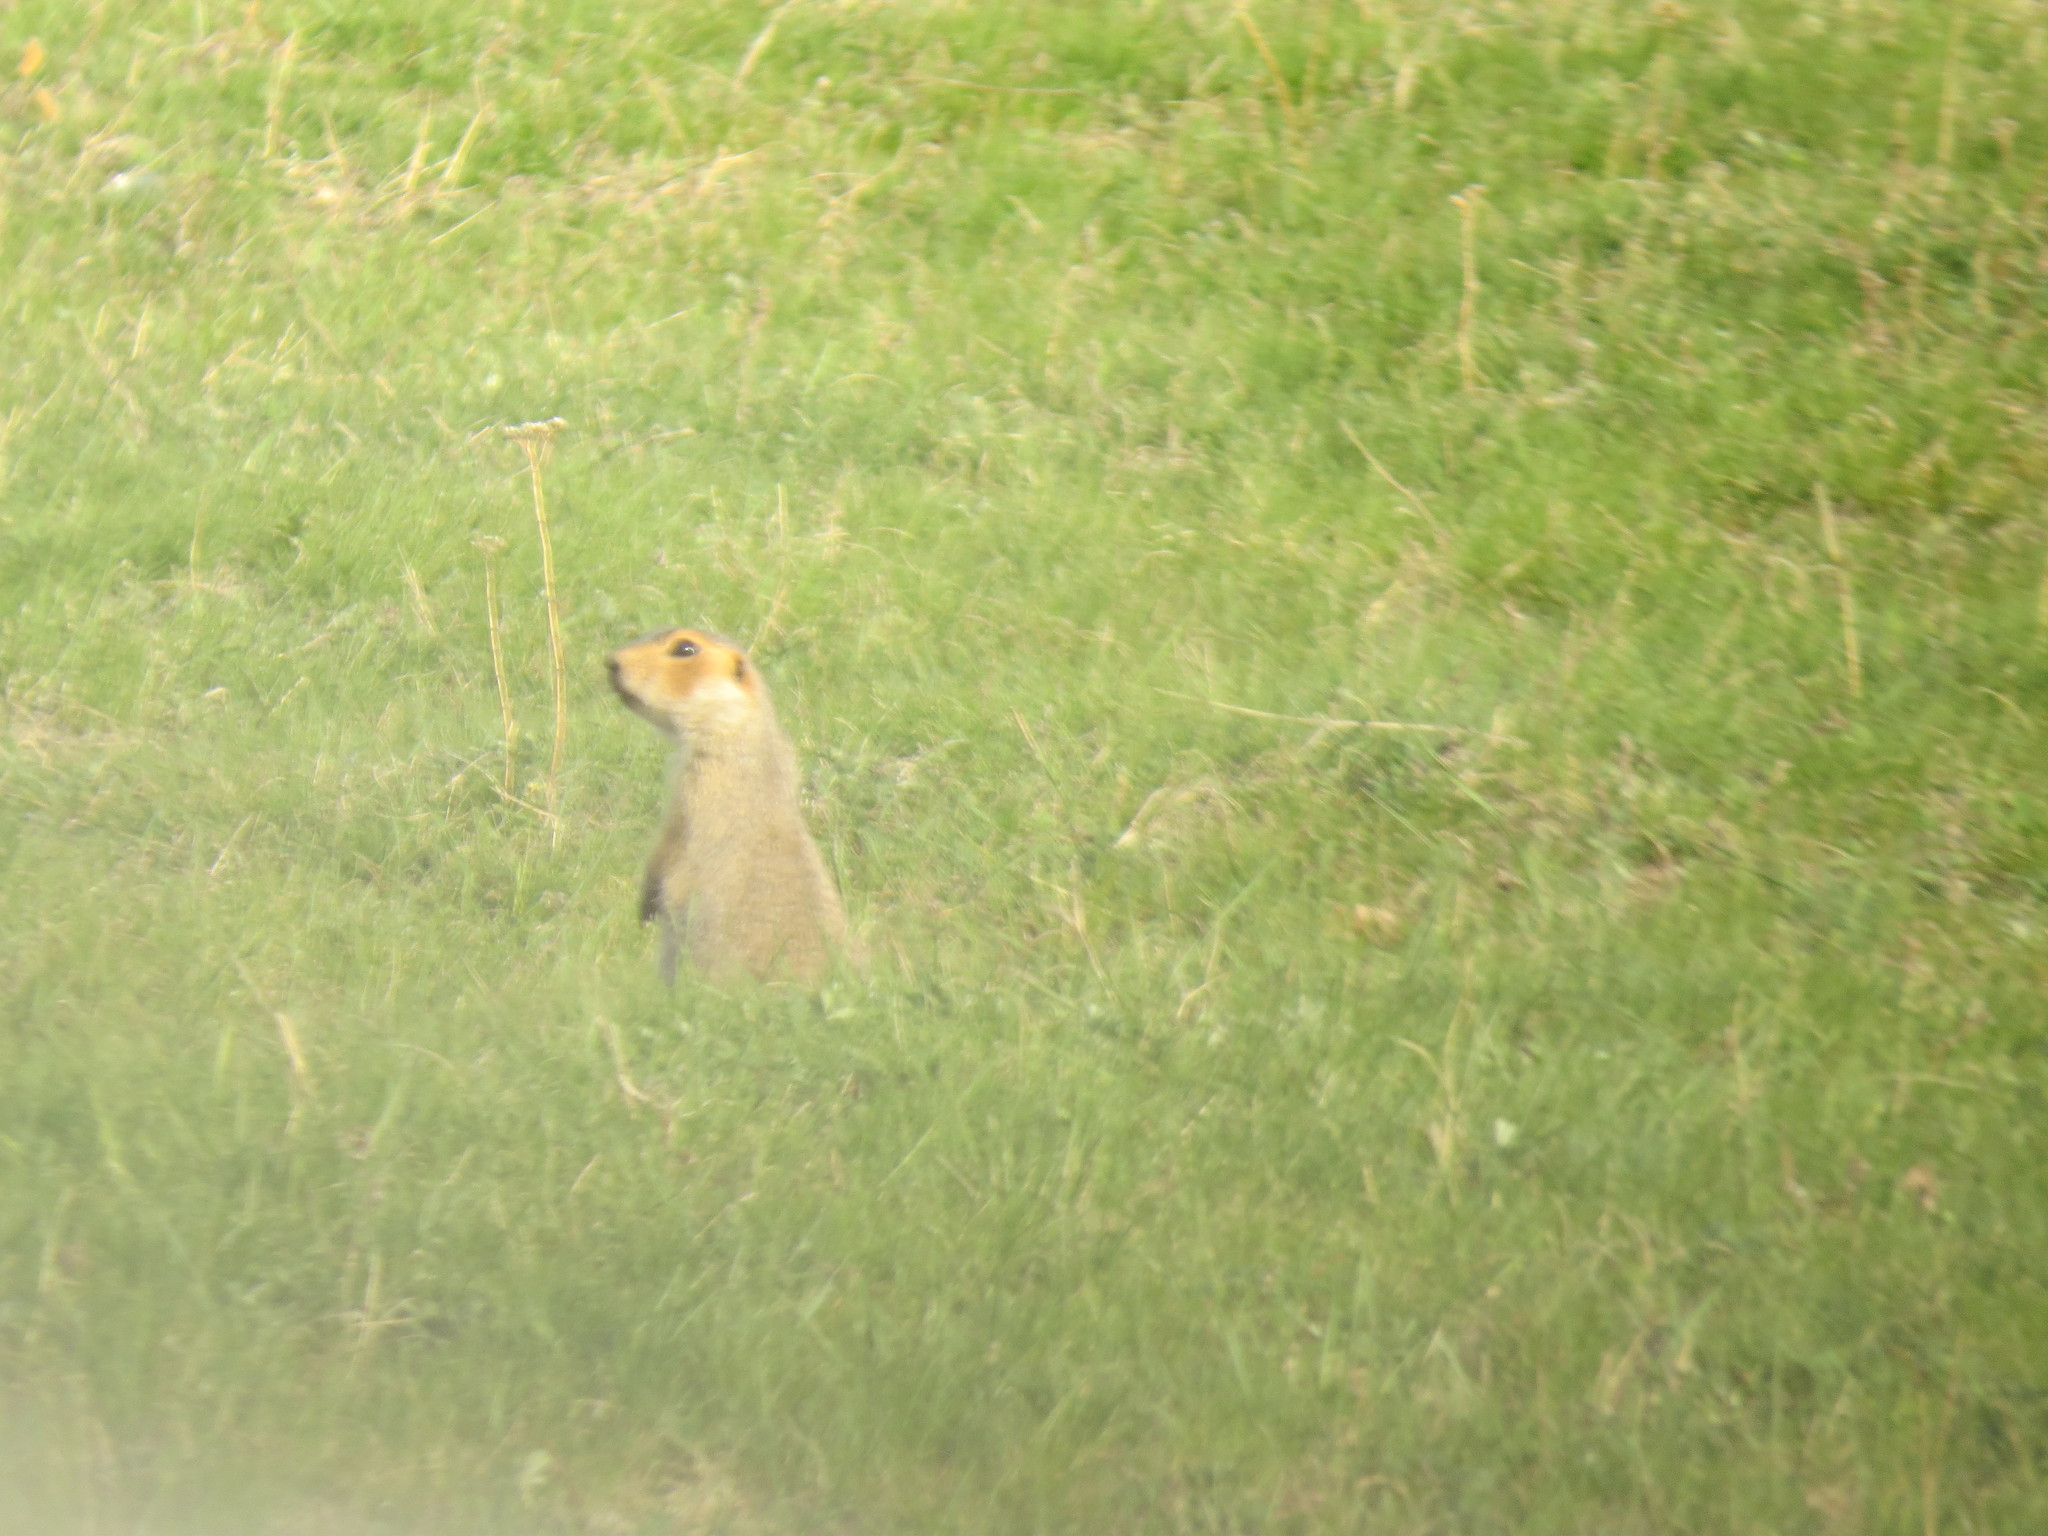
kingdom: Animalia
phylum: Chordata
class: Mammalia
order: Rodentia
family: Sciuridae
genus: Spermophilus
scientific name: Spermophilus major
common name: Russet ground squirrel
